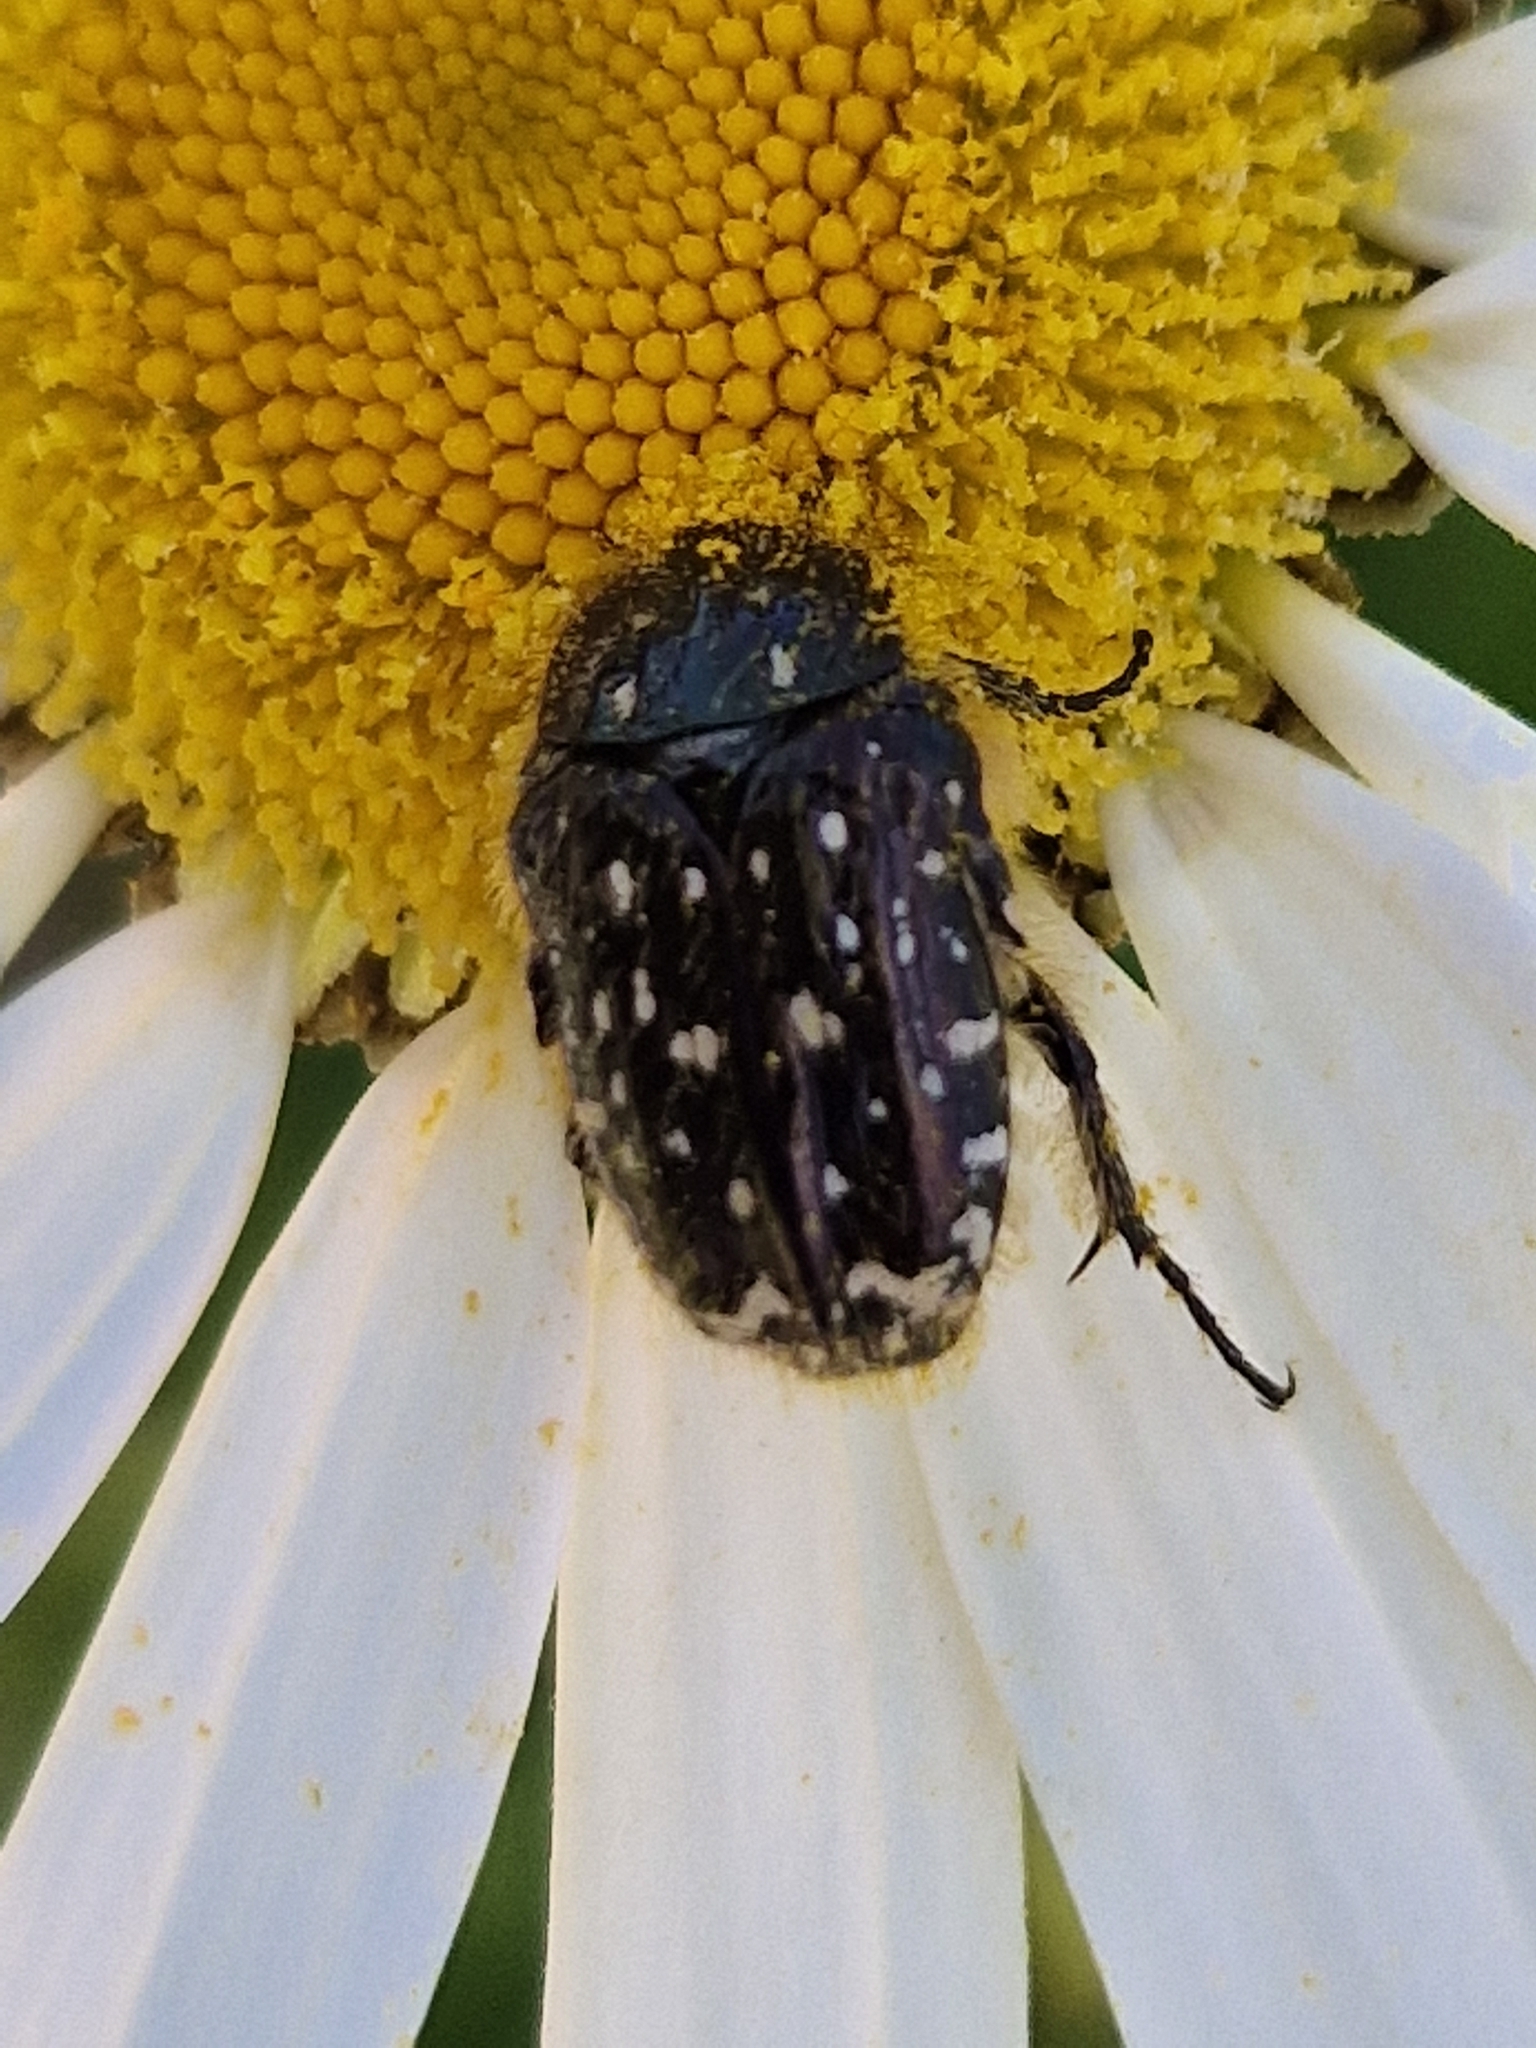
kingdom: Animalia
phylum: Arthropoda
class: Insecta
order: Coleoptera
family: Scarabaeidae
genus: Oxythyrea
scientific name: Oxythyrea funesta
